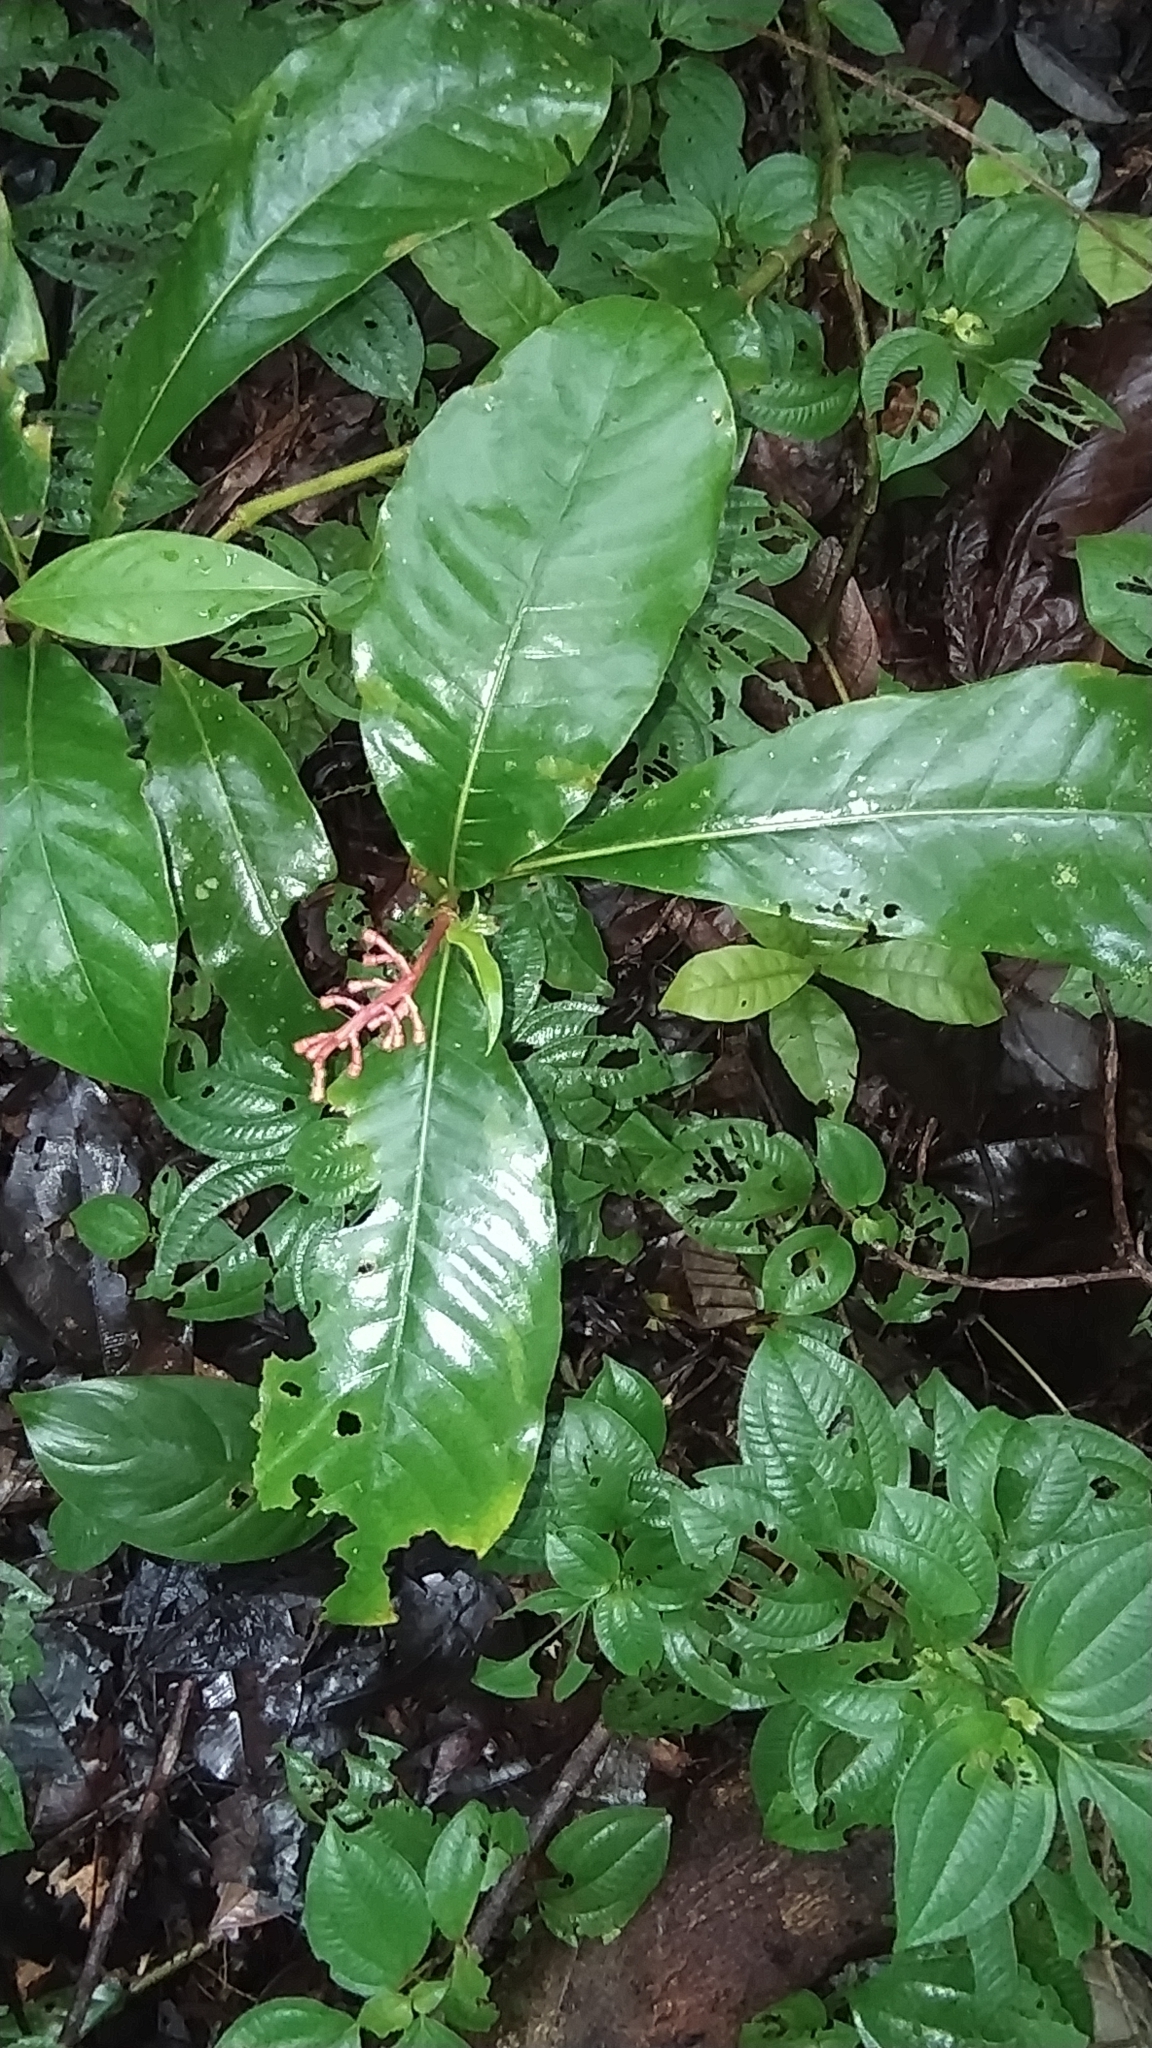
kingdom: Plantae
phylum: Tracheophyta
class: Magnoliopsida
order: Gentianales
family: Rubiaceae
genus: Palicourea
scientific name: Palicourea calophylla
